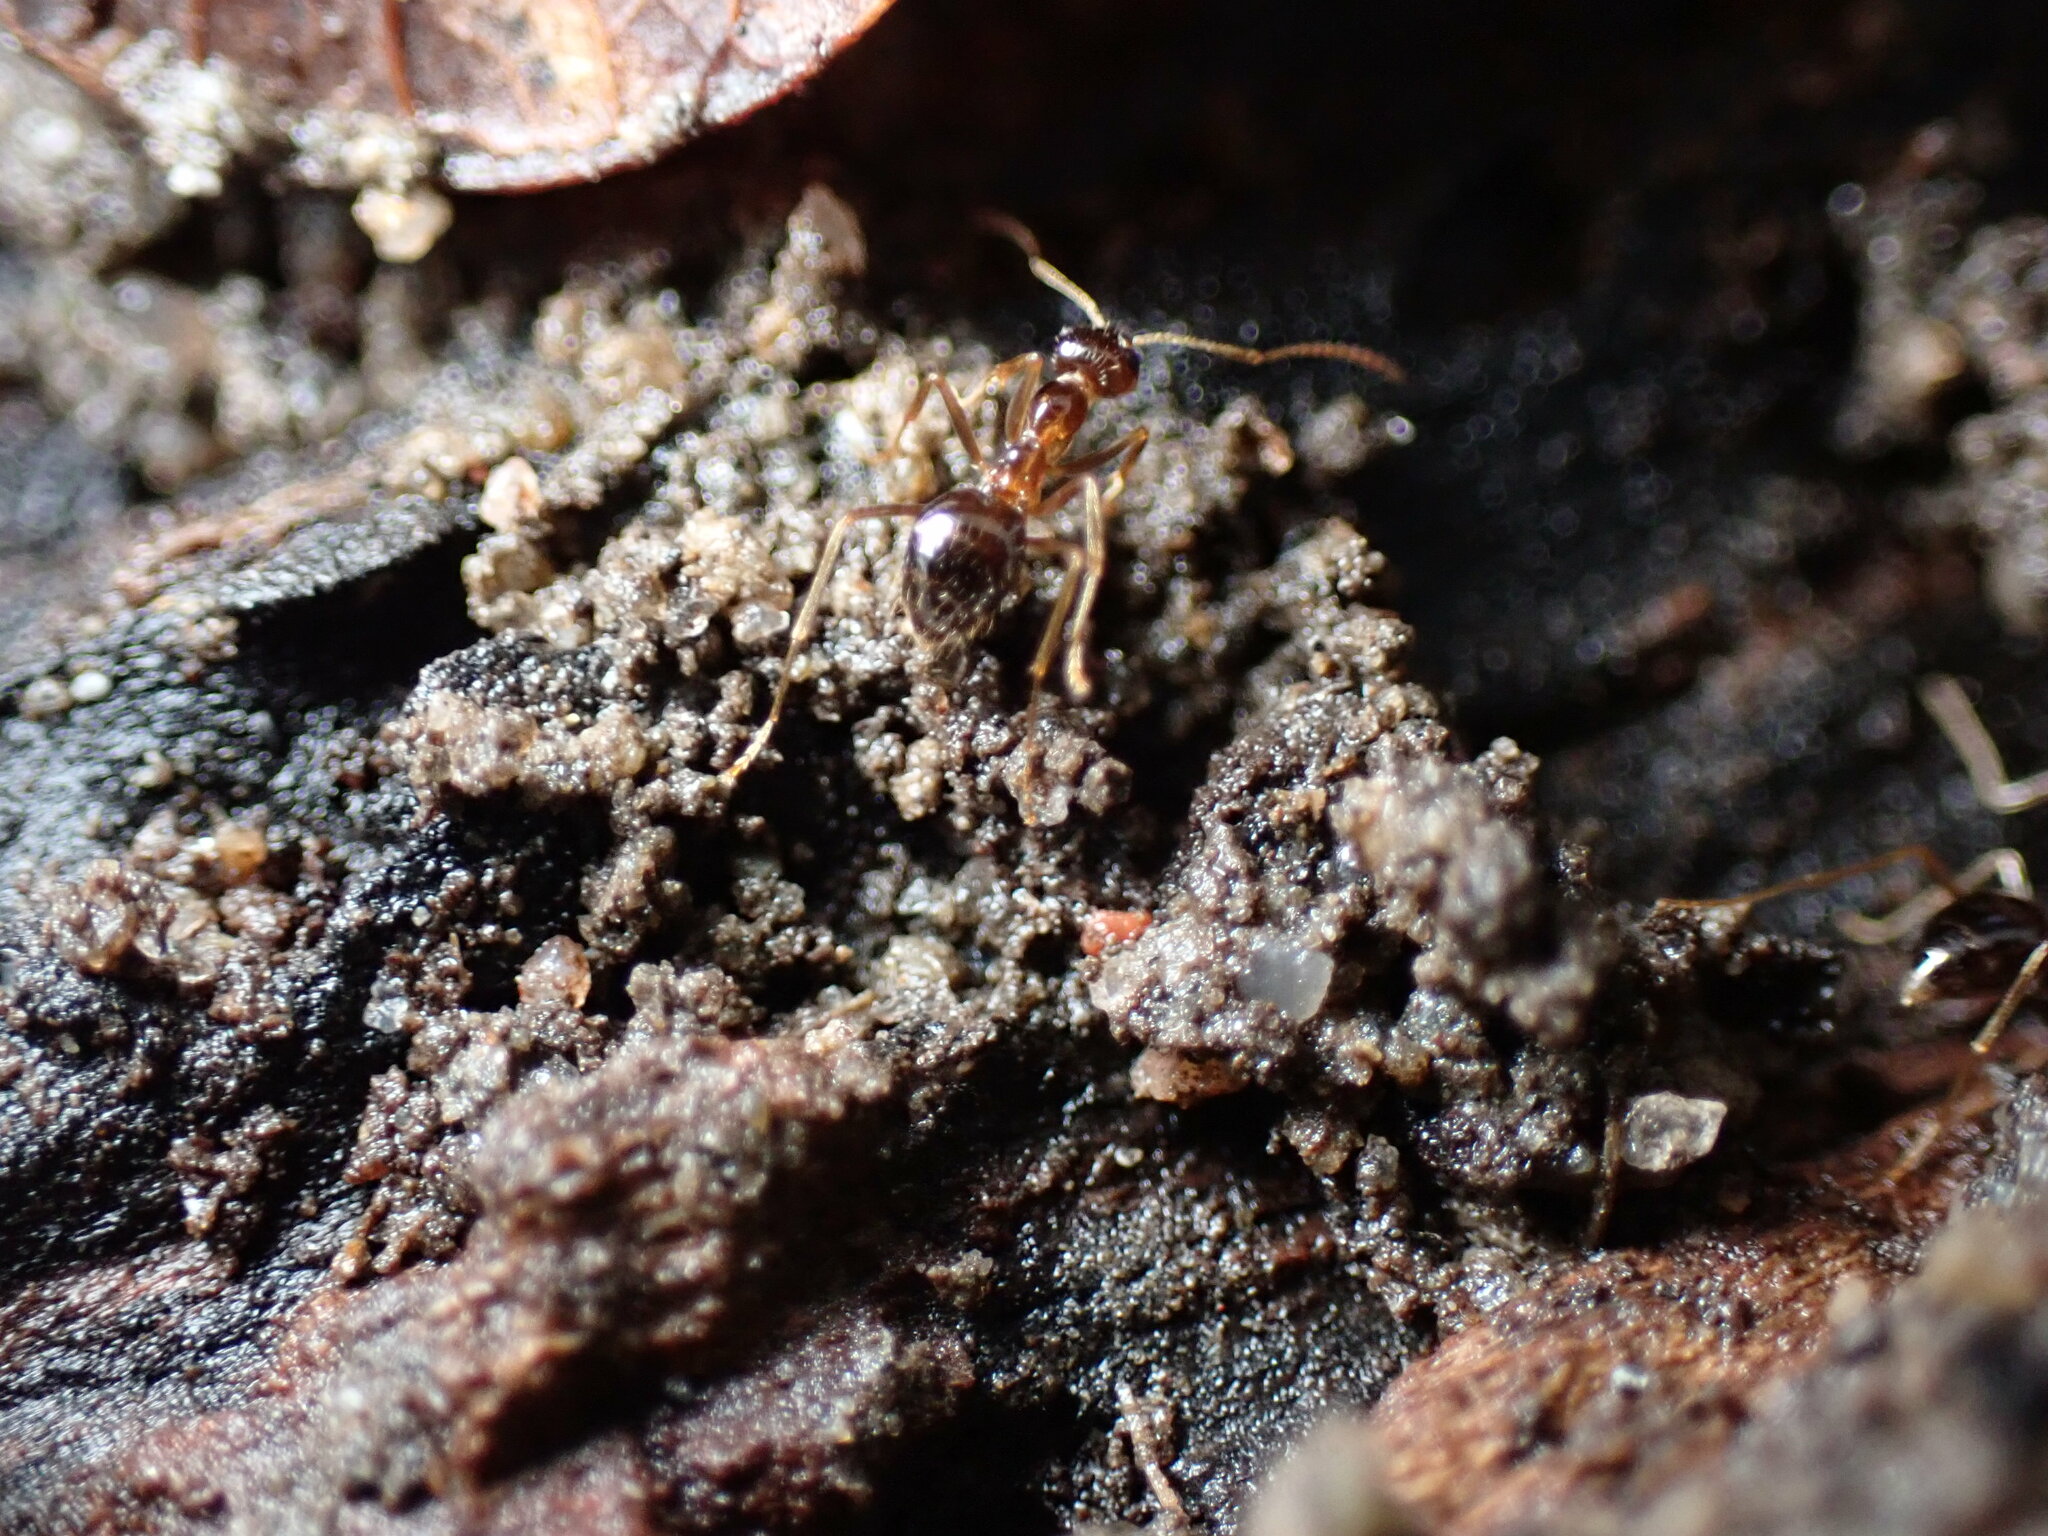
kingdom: Animalia
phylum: Arthropoda
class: Insecta
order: Hymenoptera
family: Formicidae
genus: Prenolepis
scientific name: Prenolepis imparis
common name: Small honey ant
